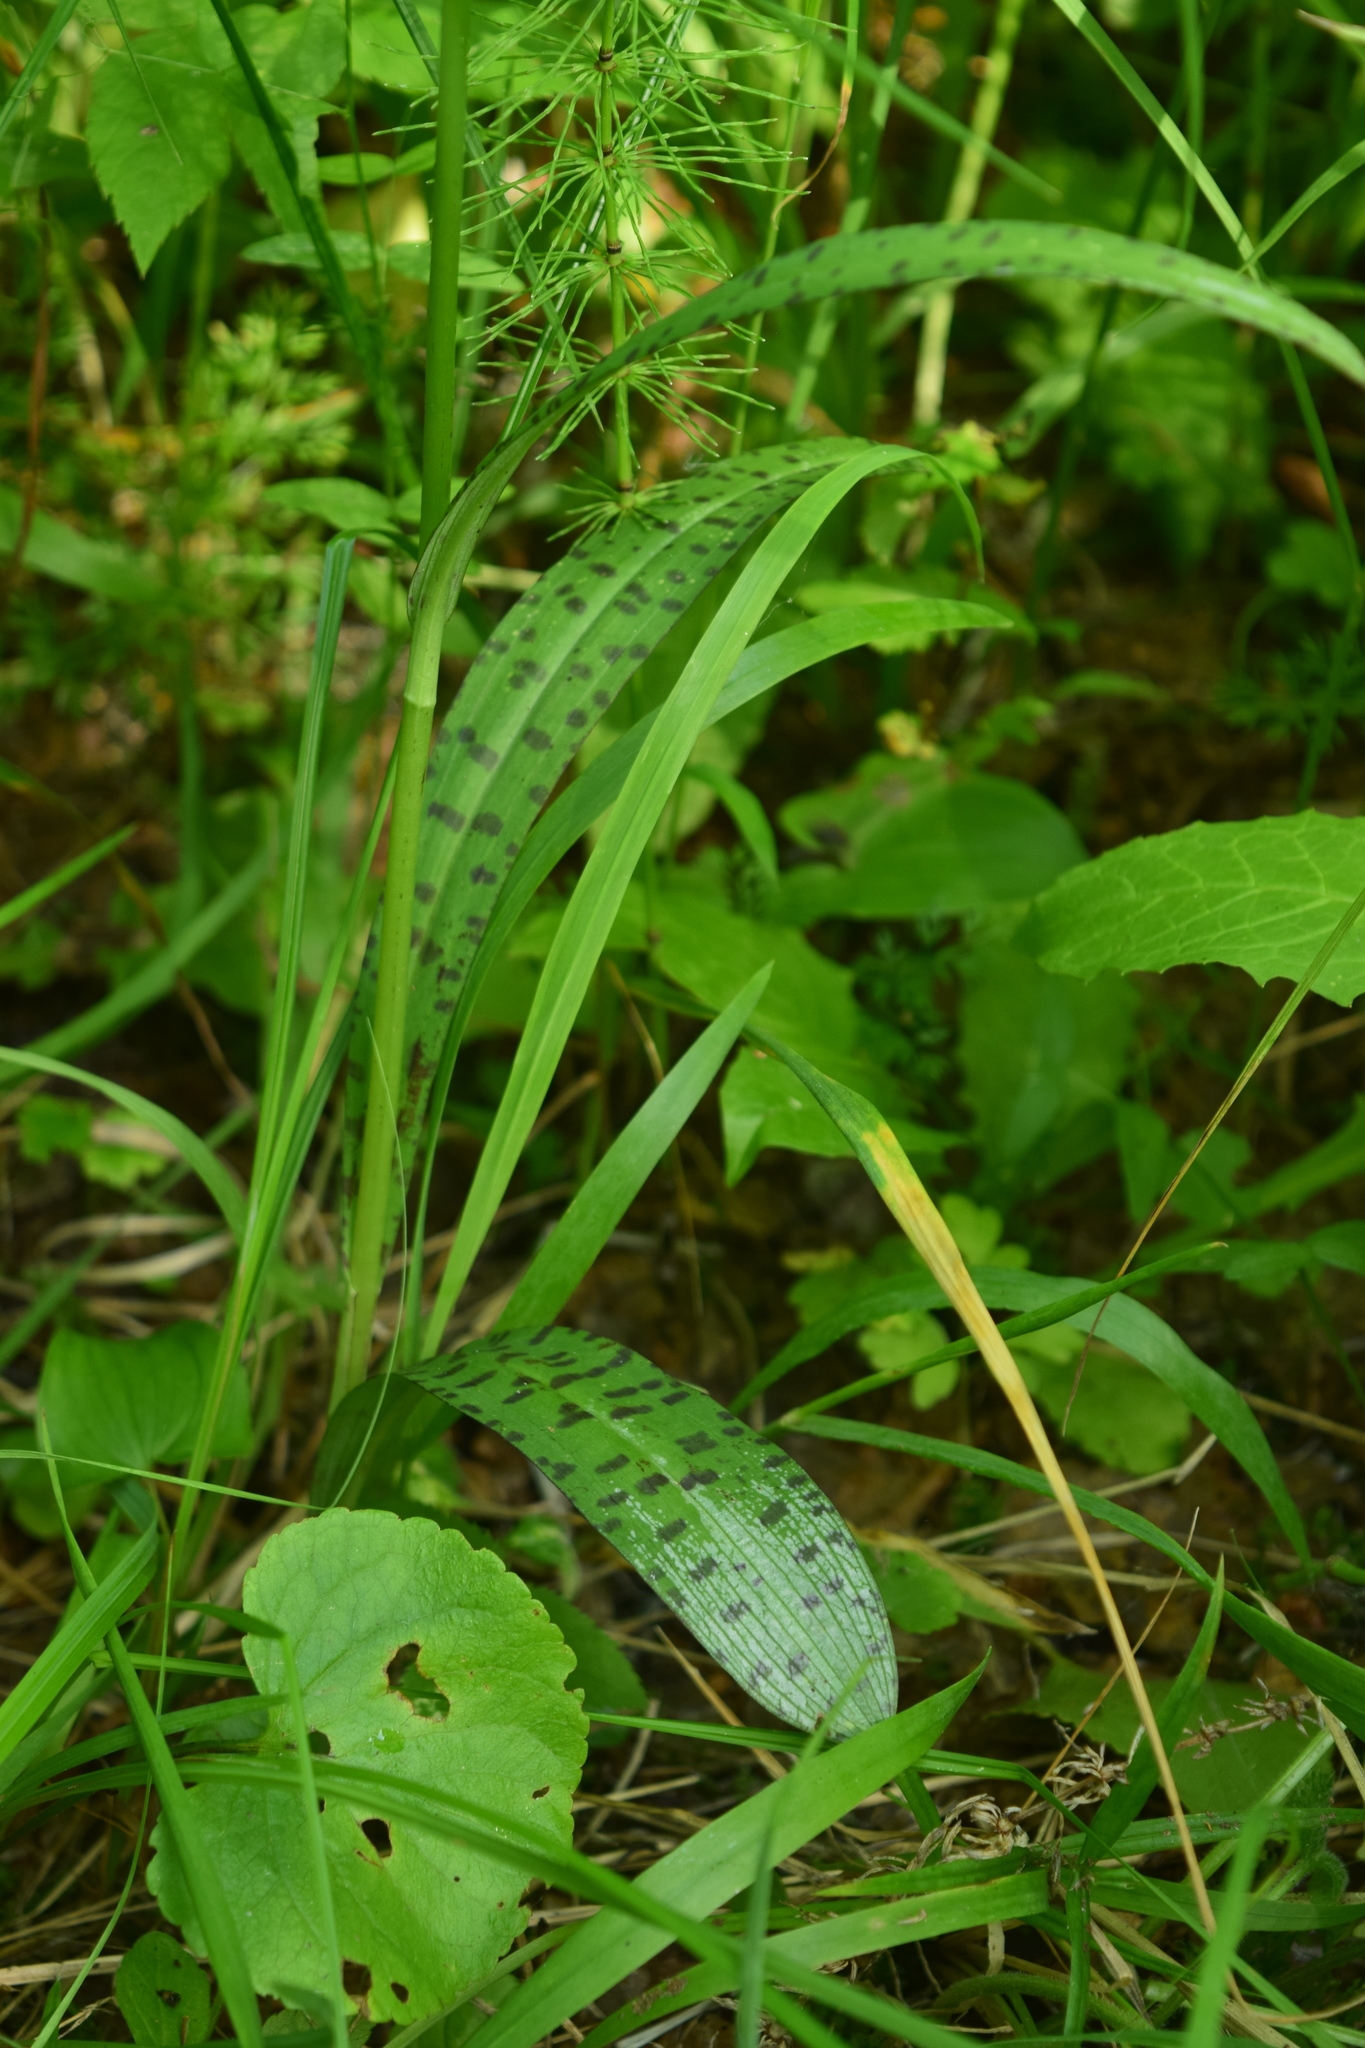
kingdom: Plantae
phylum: Tracheophyta
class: Liliopsida
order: Asparagales
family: Orchidaceae
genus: Dactylorhiza
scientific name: Dactylorhiza maculata
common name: Heath spotted-orchid
